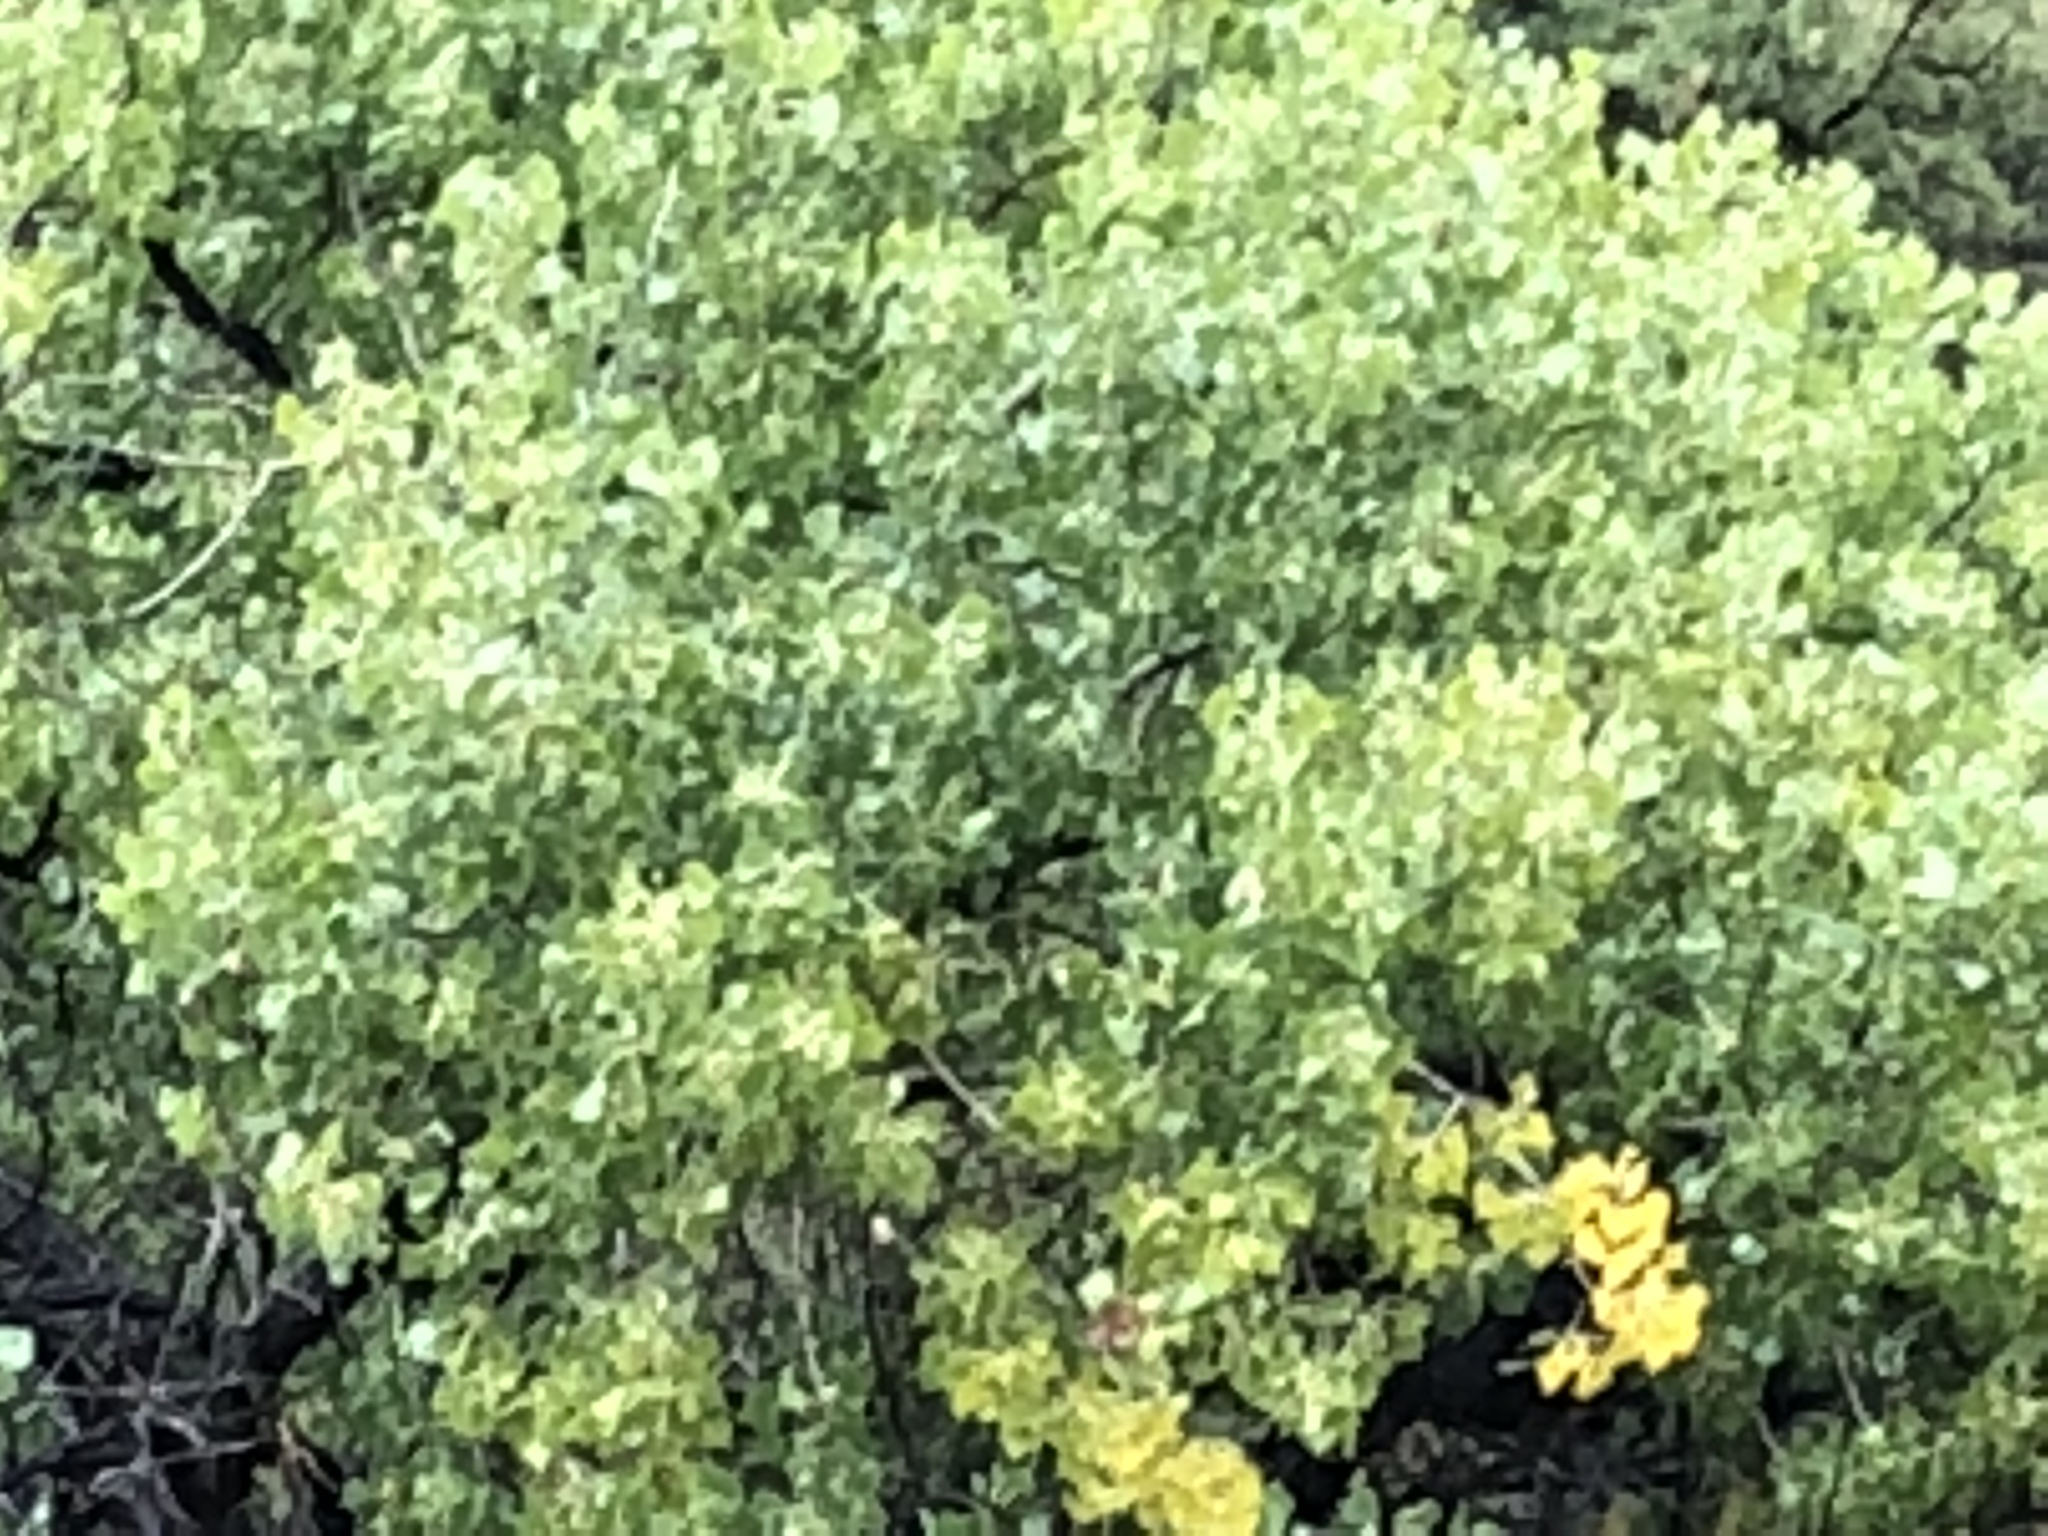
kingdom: Plantae
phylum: Tracheophyta
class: Magnoliopsida
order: Malpighiales
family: Salicaceae
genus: Populus
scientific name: Populus fremontii
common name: Fremont's cottonwood
